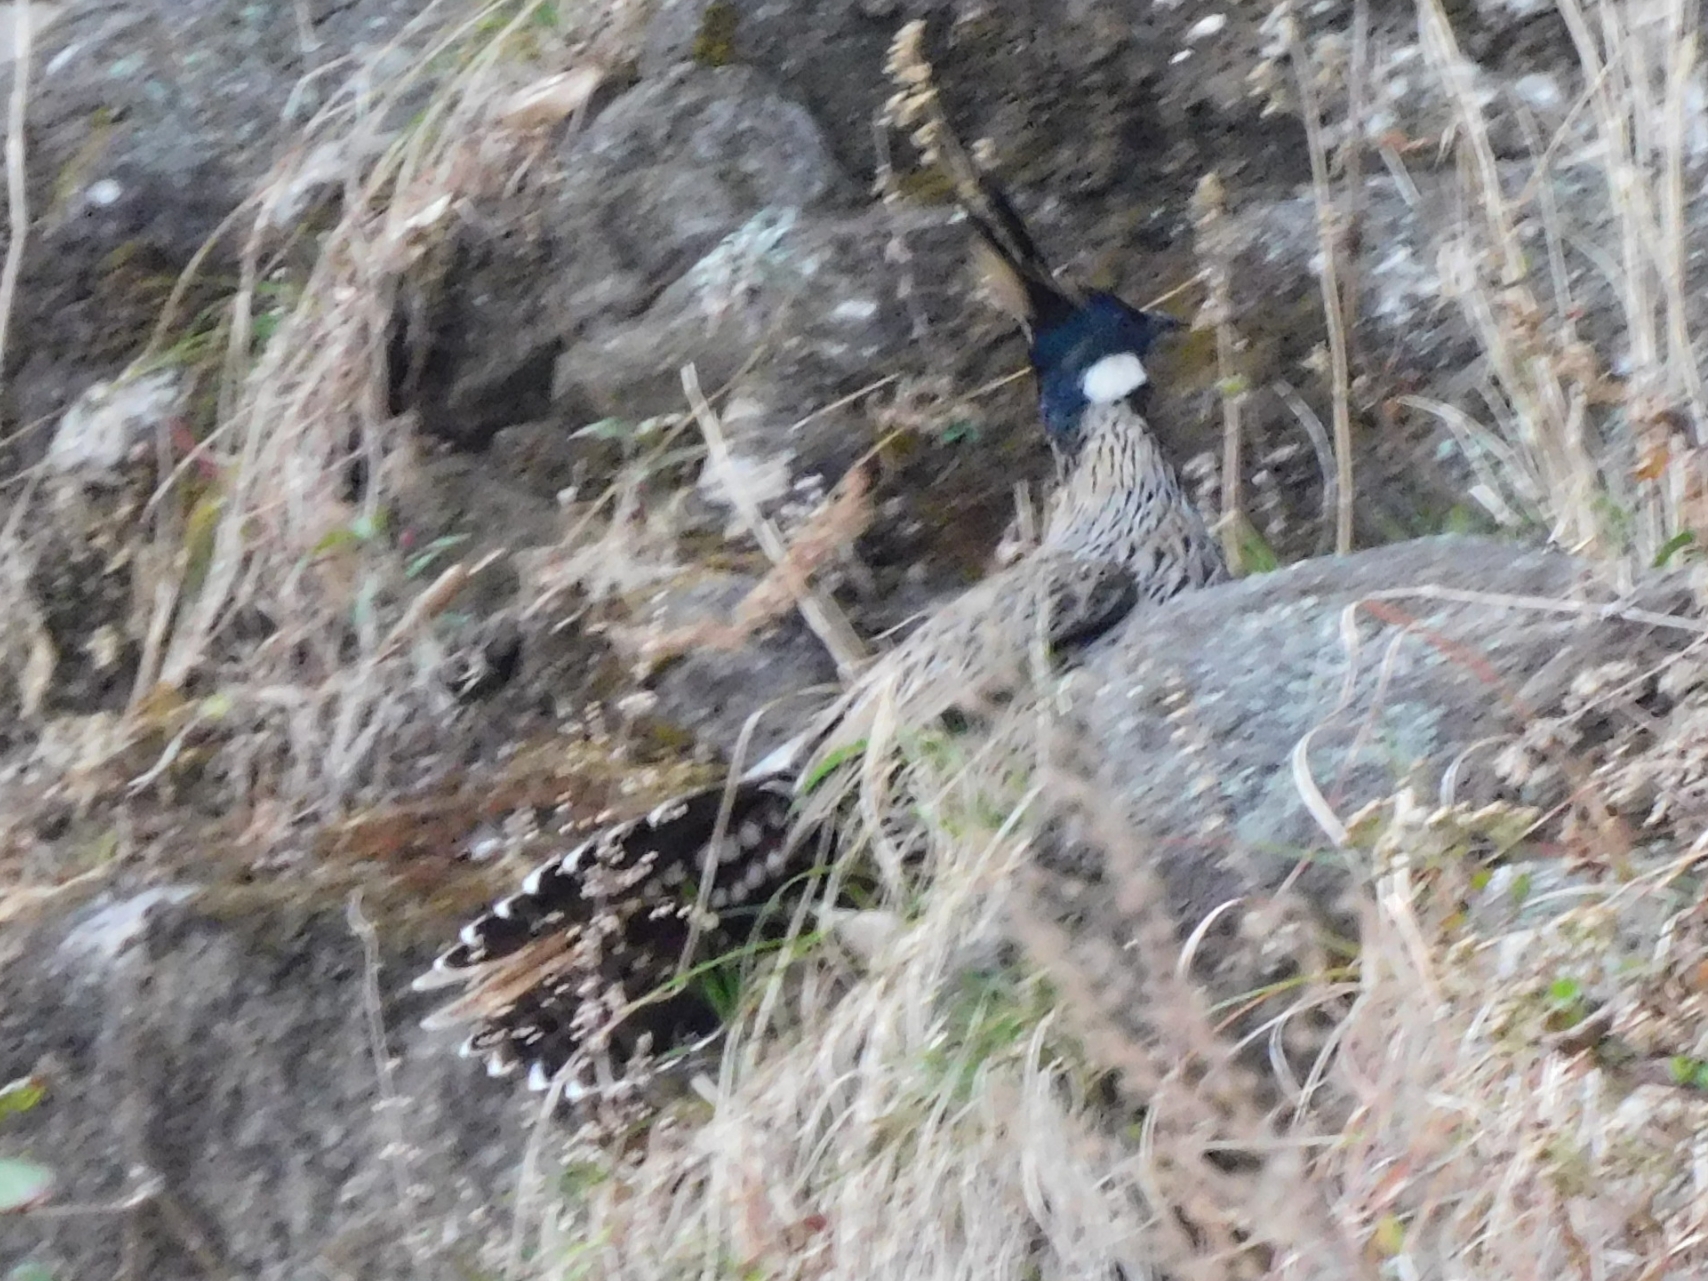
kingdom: Animalia
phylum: Chordata
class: Aves
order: Galliformes
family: Phasianidae
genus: Pucrasia
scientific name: Pucrasia macrolopha
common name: Koklass pheasant
